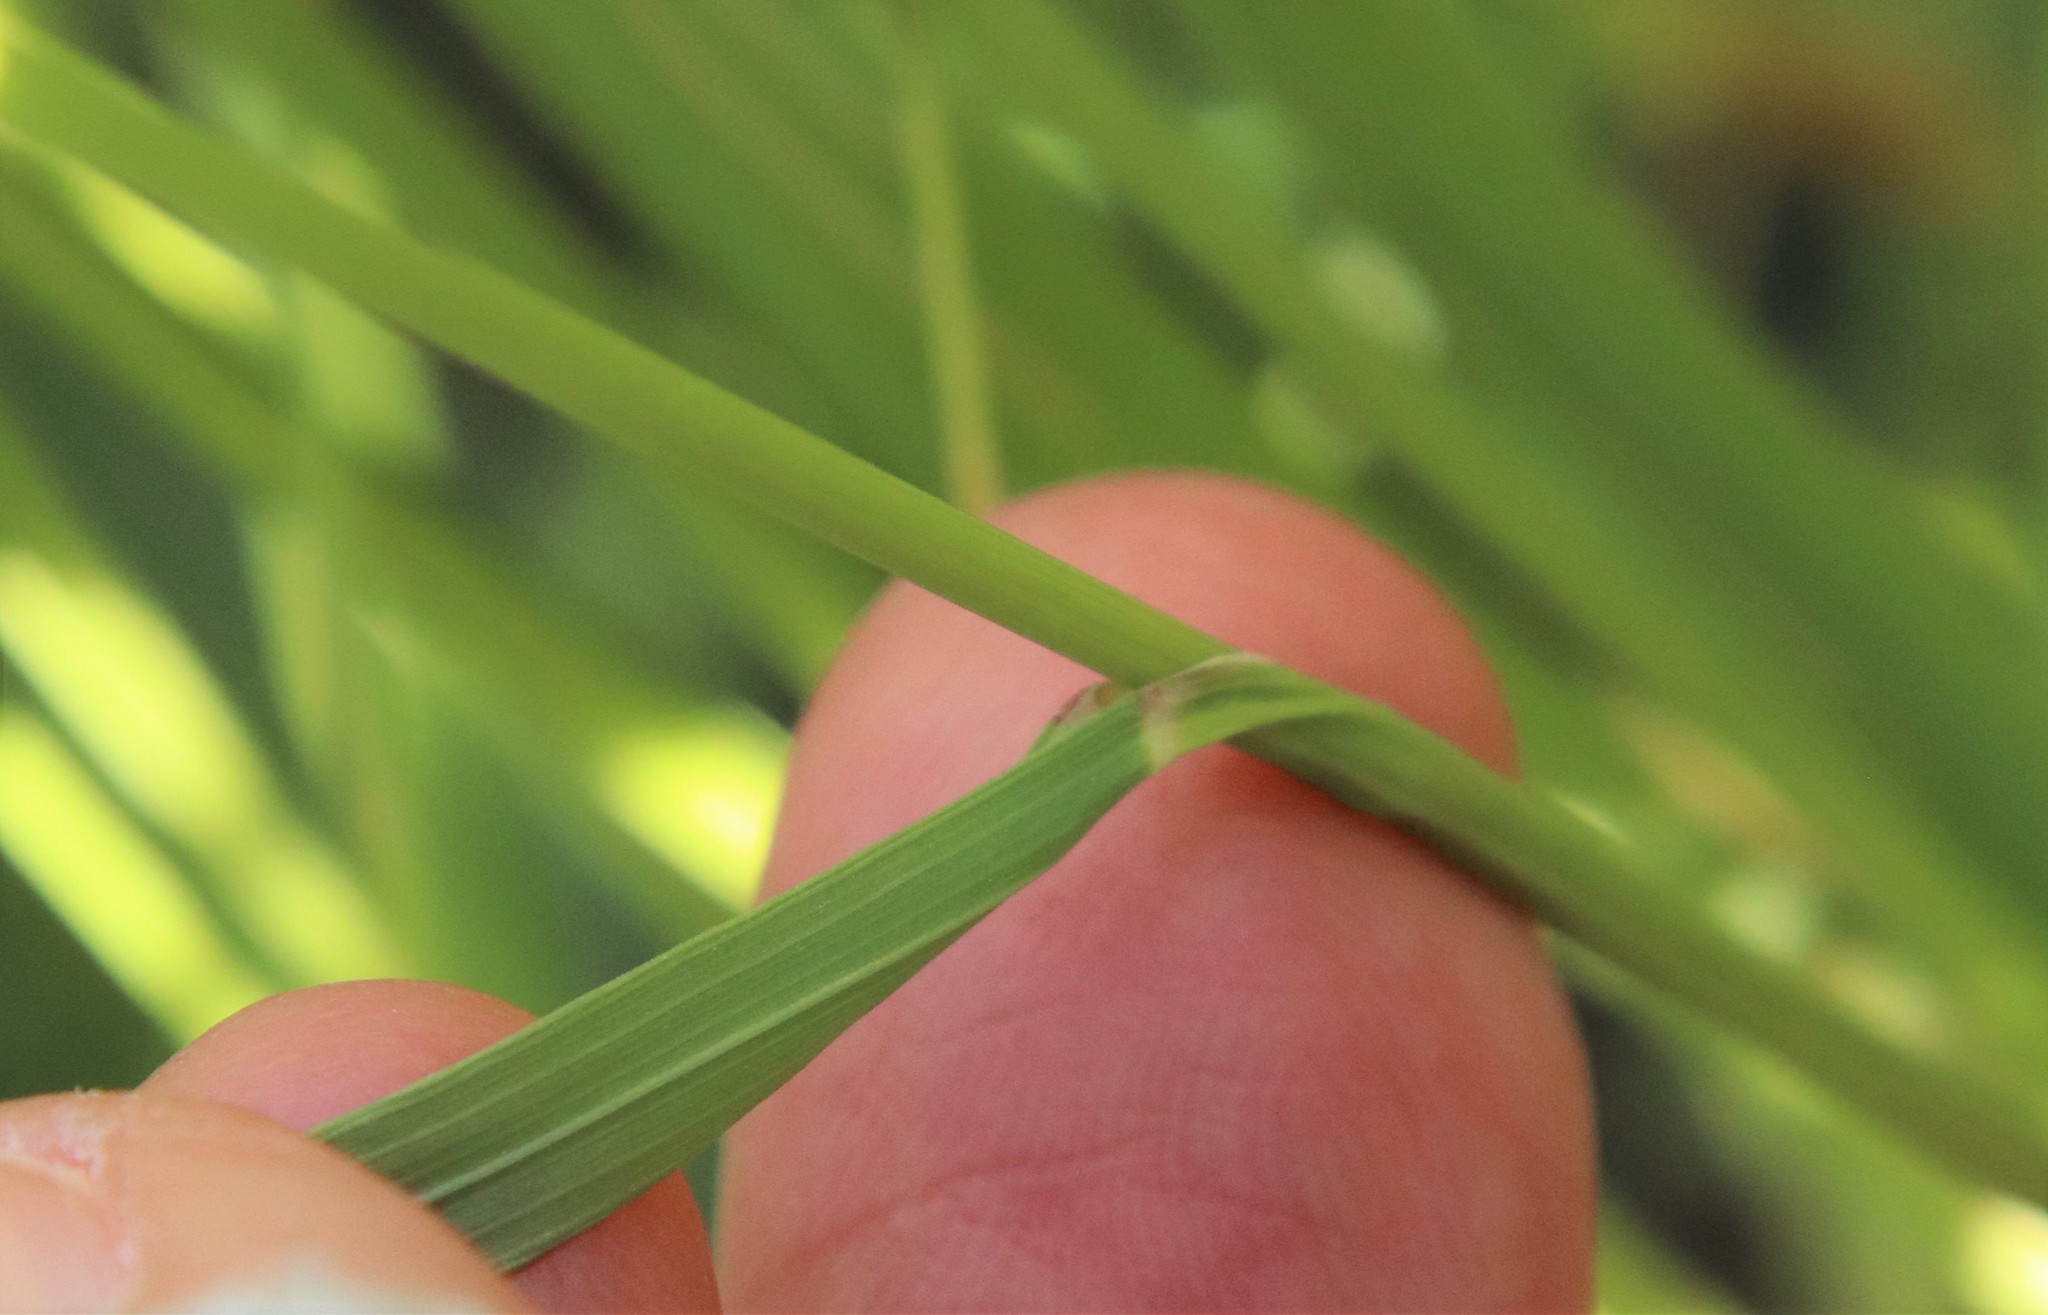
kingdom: Plantae
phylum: Tracheophyta
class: Liliopsida
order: Poales
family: Poaceae
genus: Melica
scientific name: Melica imperfecta
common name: California melic
